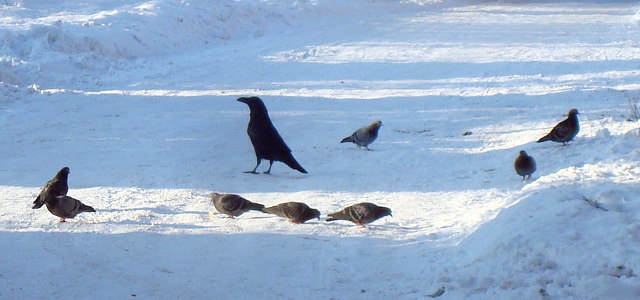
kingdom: Animalia
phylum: Chordata
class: Aves
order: Columbiformes
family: Columbidae
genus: Columba
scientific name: Columba livia
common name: Rock pigeon
